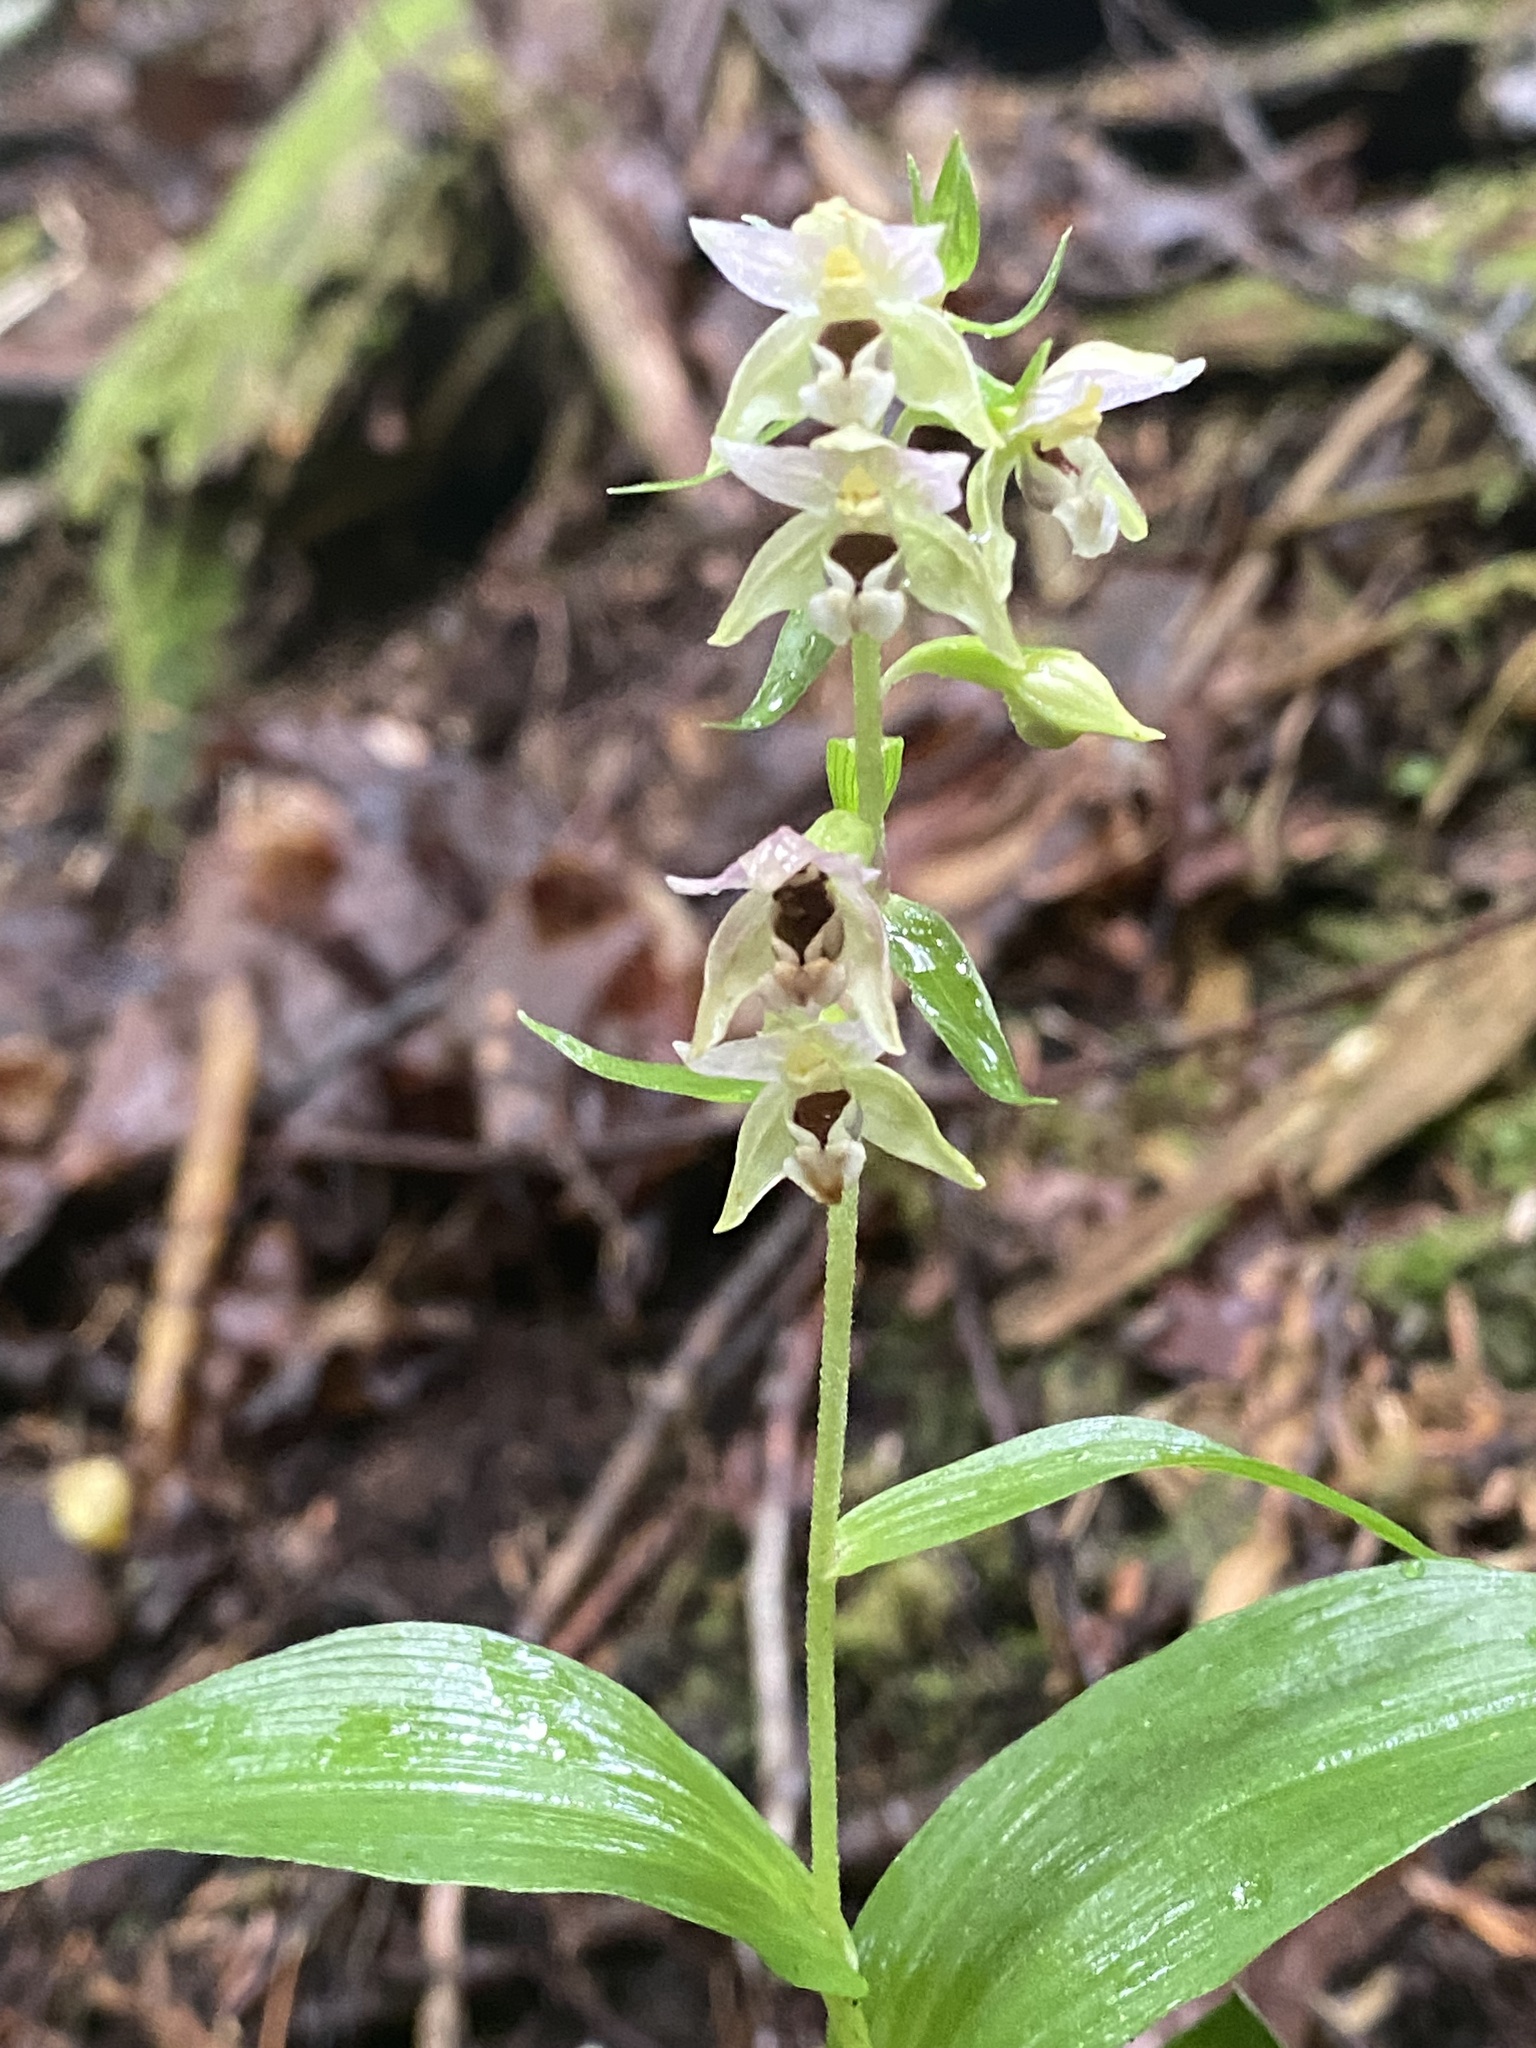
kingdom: Plantae
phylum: Tracheophyta
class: Liliopsida
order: Asparagales
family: Orchidaceae
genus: Epipactis
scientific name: Epipactis helleborine
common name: Broad-leaved helleborine
